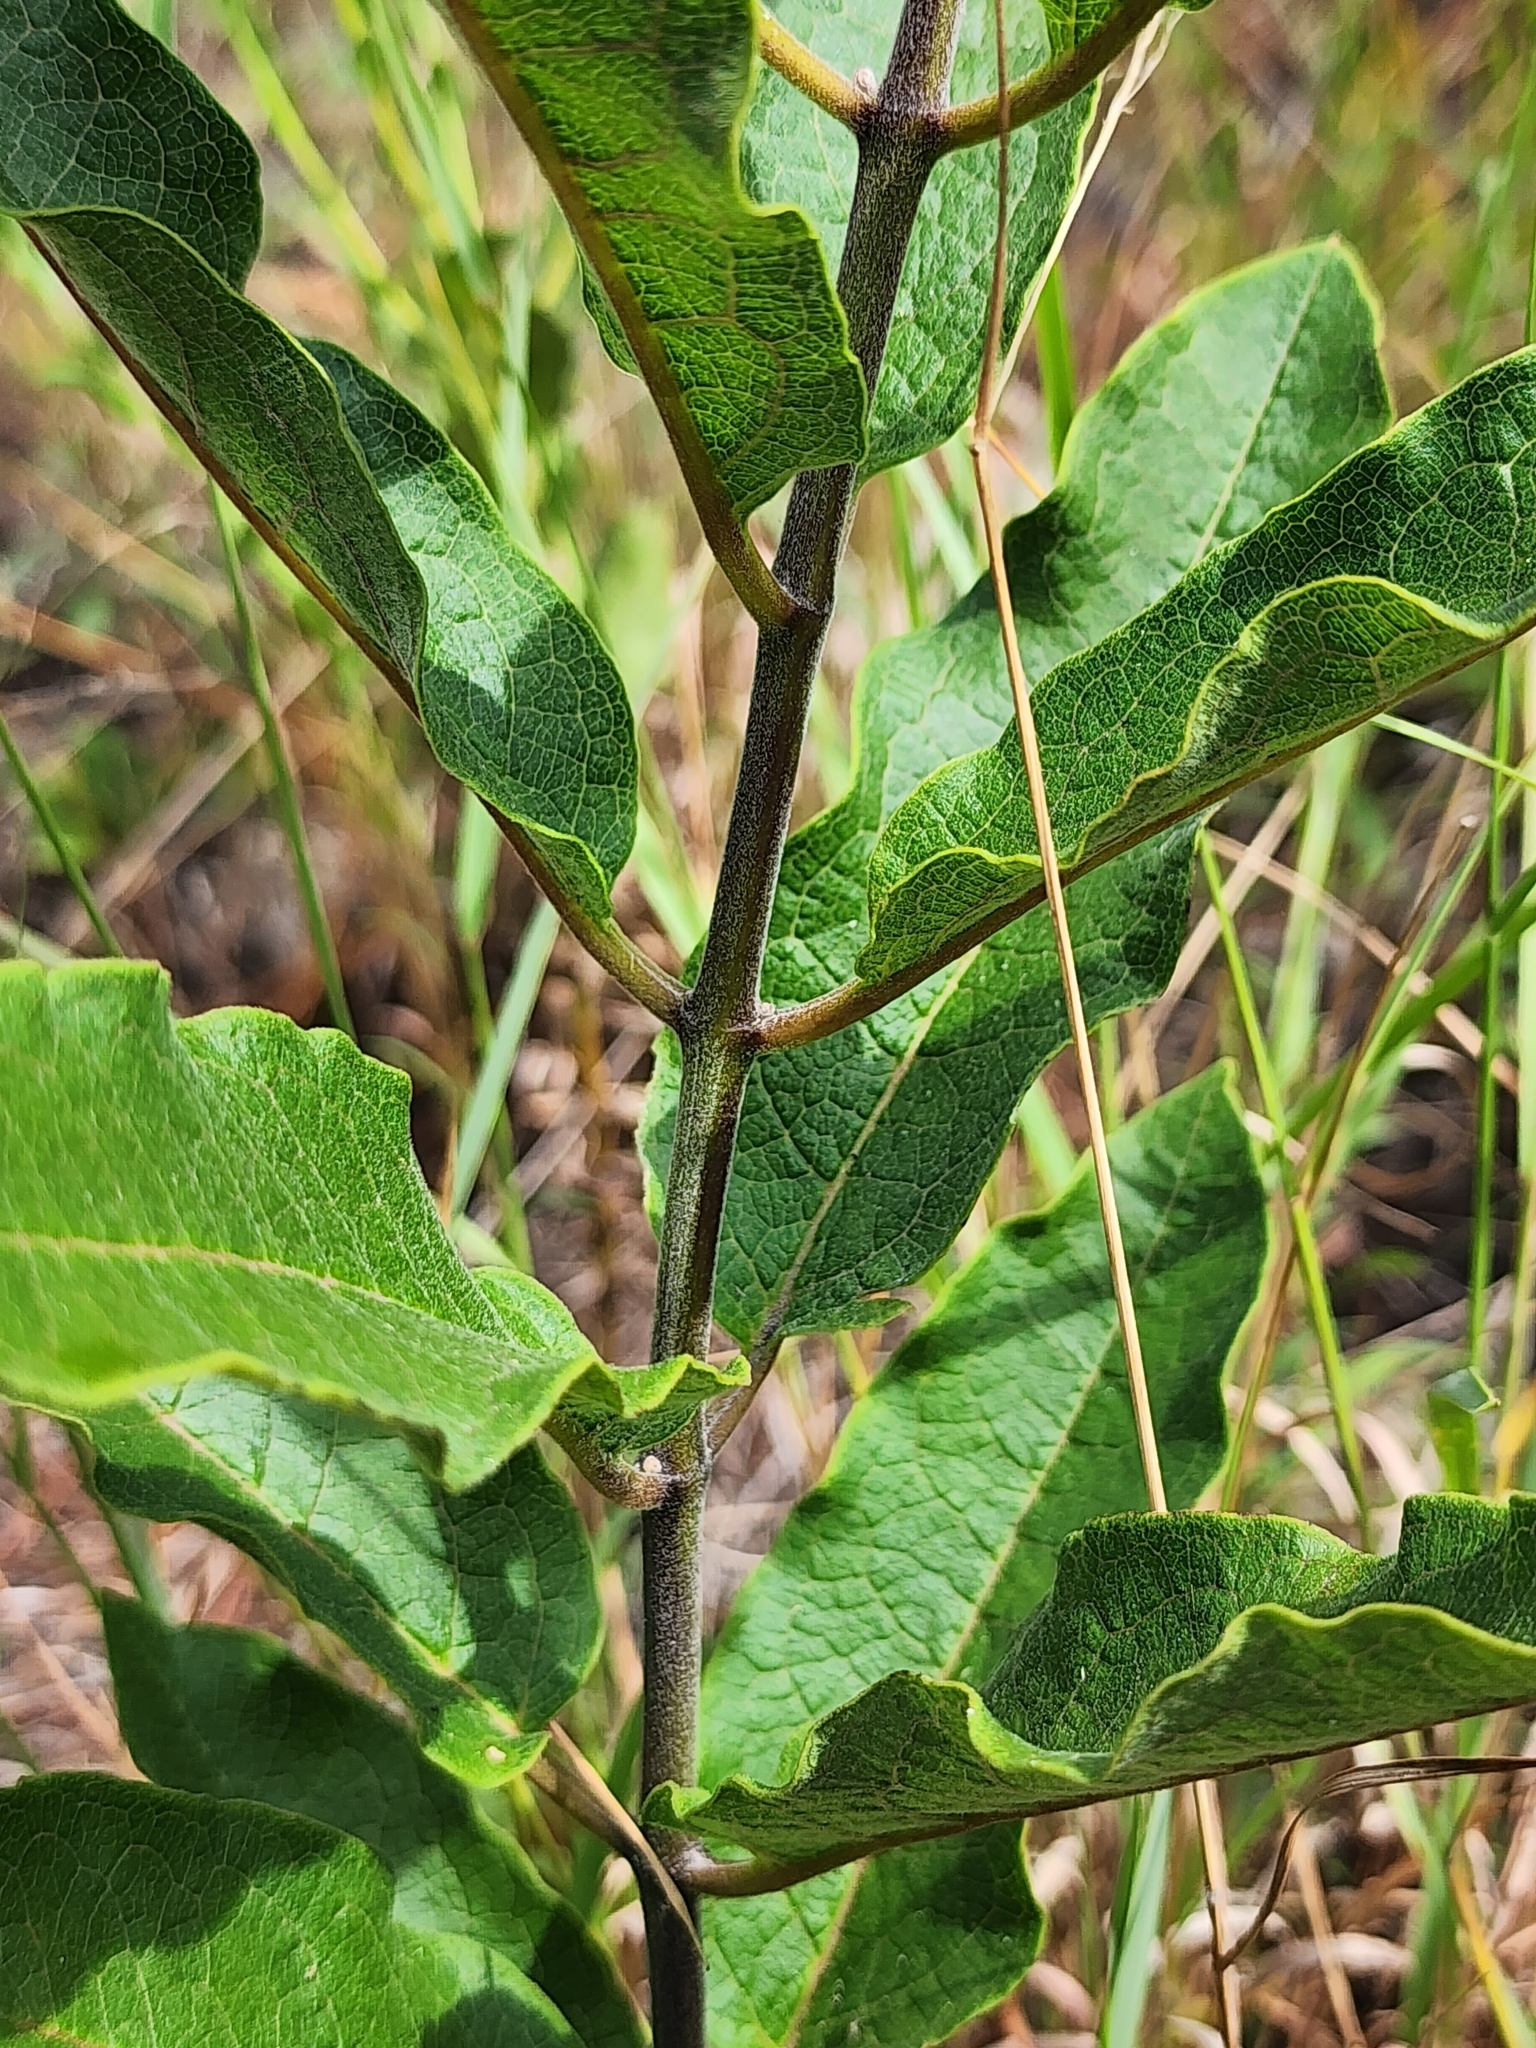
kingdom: Plantae
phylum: Tracheophyta
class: Magnoliopsida
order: Gentianales
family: Apocynaceae
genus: Asclepias
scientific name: Asclepias tomentosa
